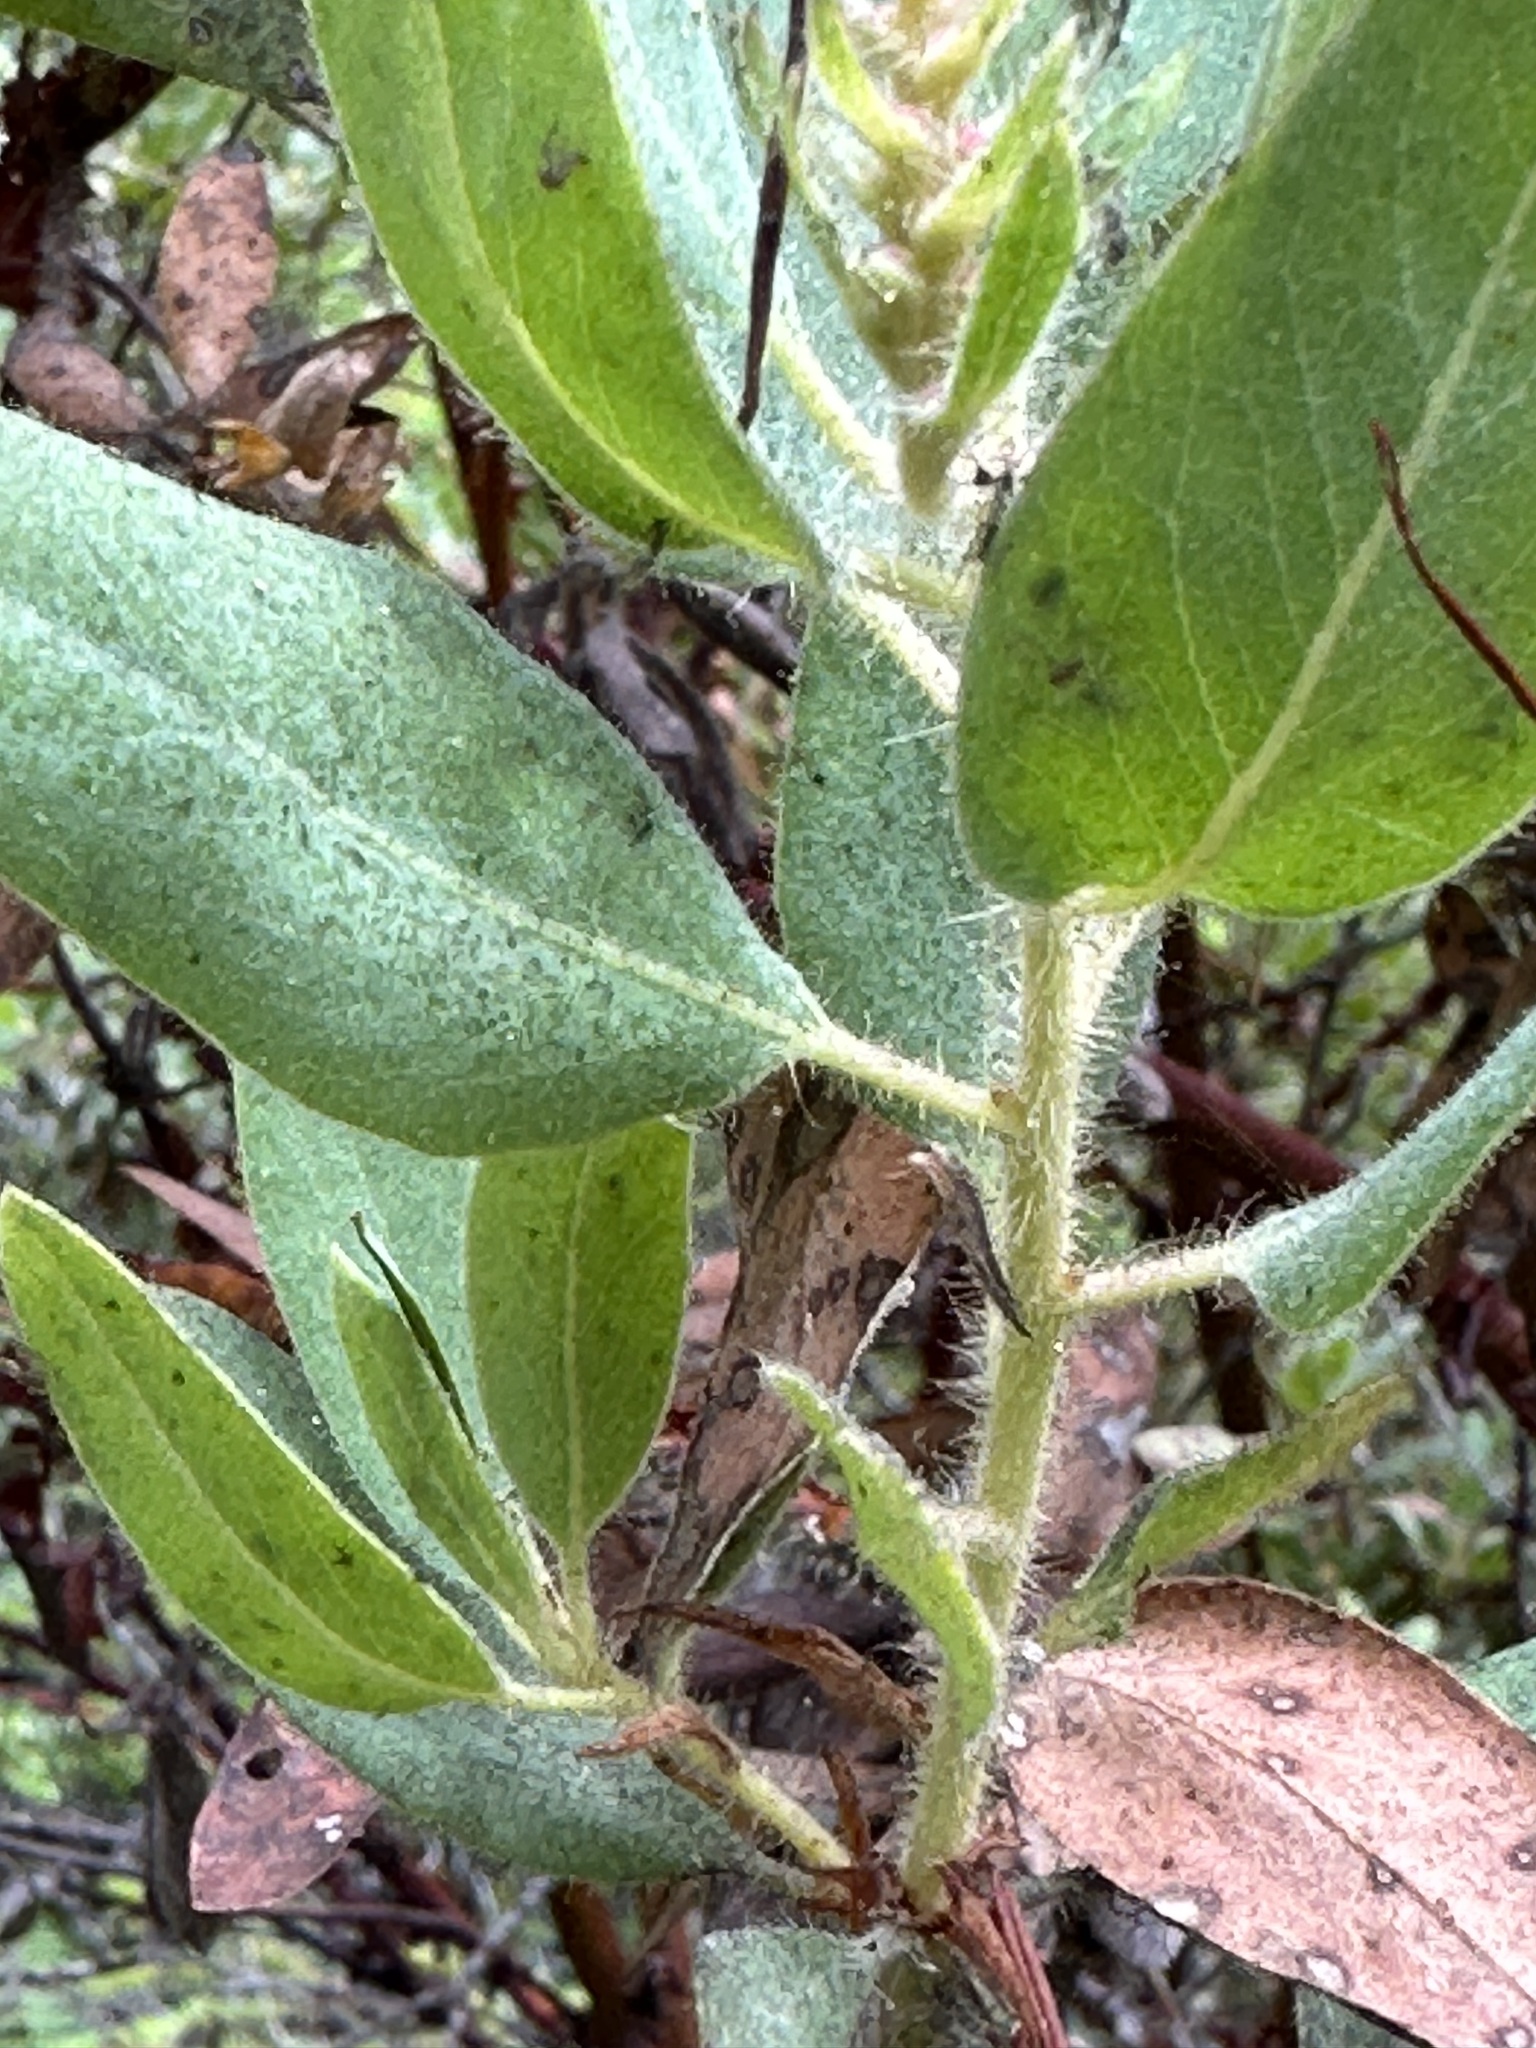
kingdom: Plantae
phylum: Tracheophyta
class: Magnoliopsida
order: Ericales
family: Ericaceae
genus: Arctostaphylos
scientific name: Arctostaphylos columbiana
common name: Bristly bearberry
